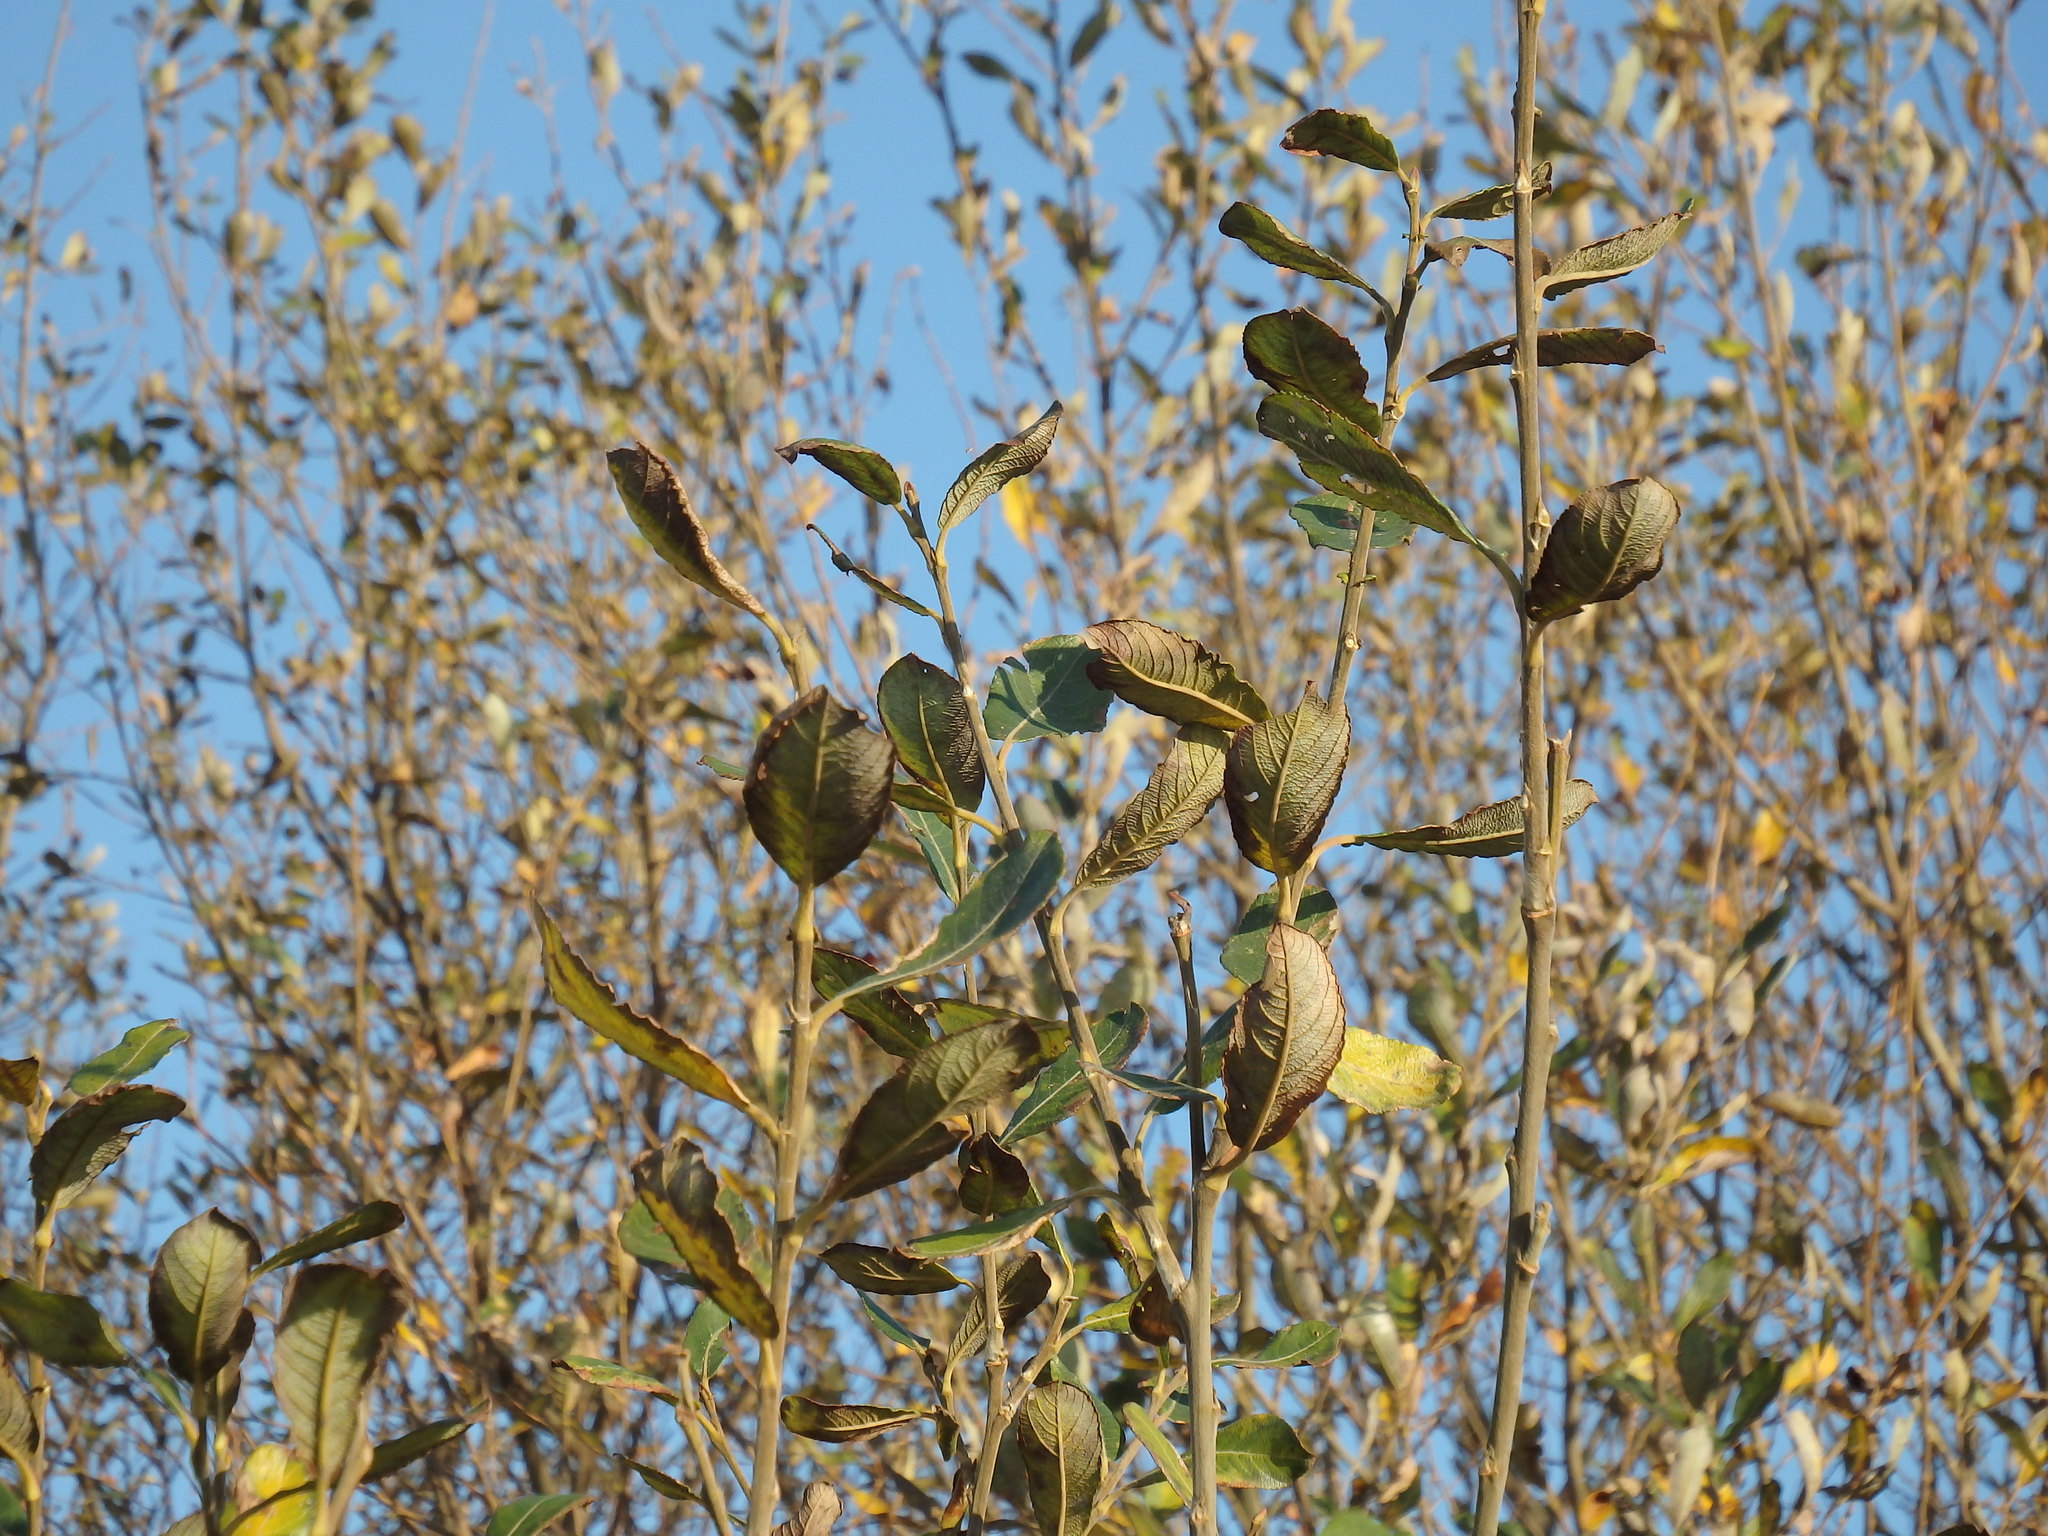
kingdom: Plantae
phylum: Tracheophyta
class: Magnoliopsida
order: Malpighiales
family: Salicaceae
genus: Salix
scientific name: Salix atrocinerea
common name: Rusty willow
